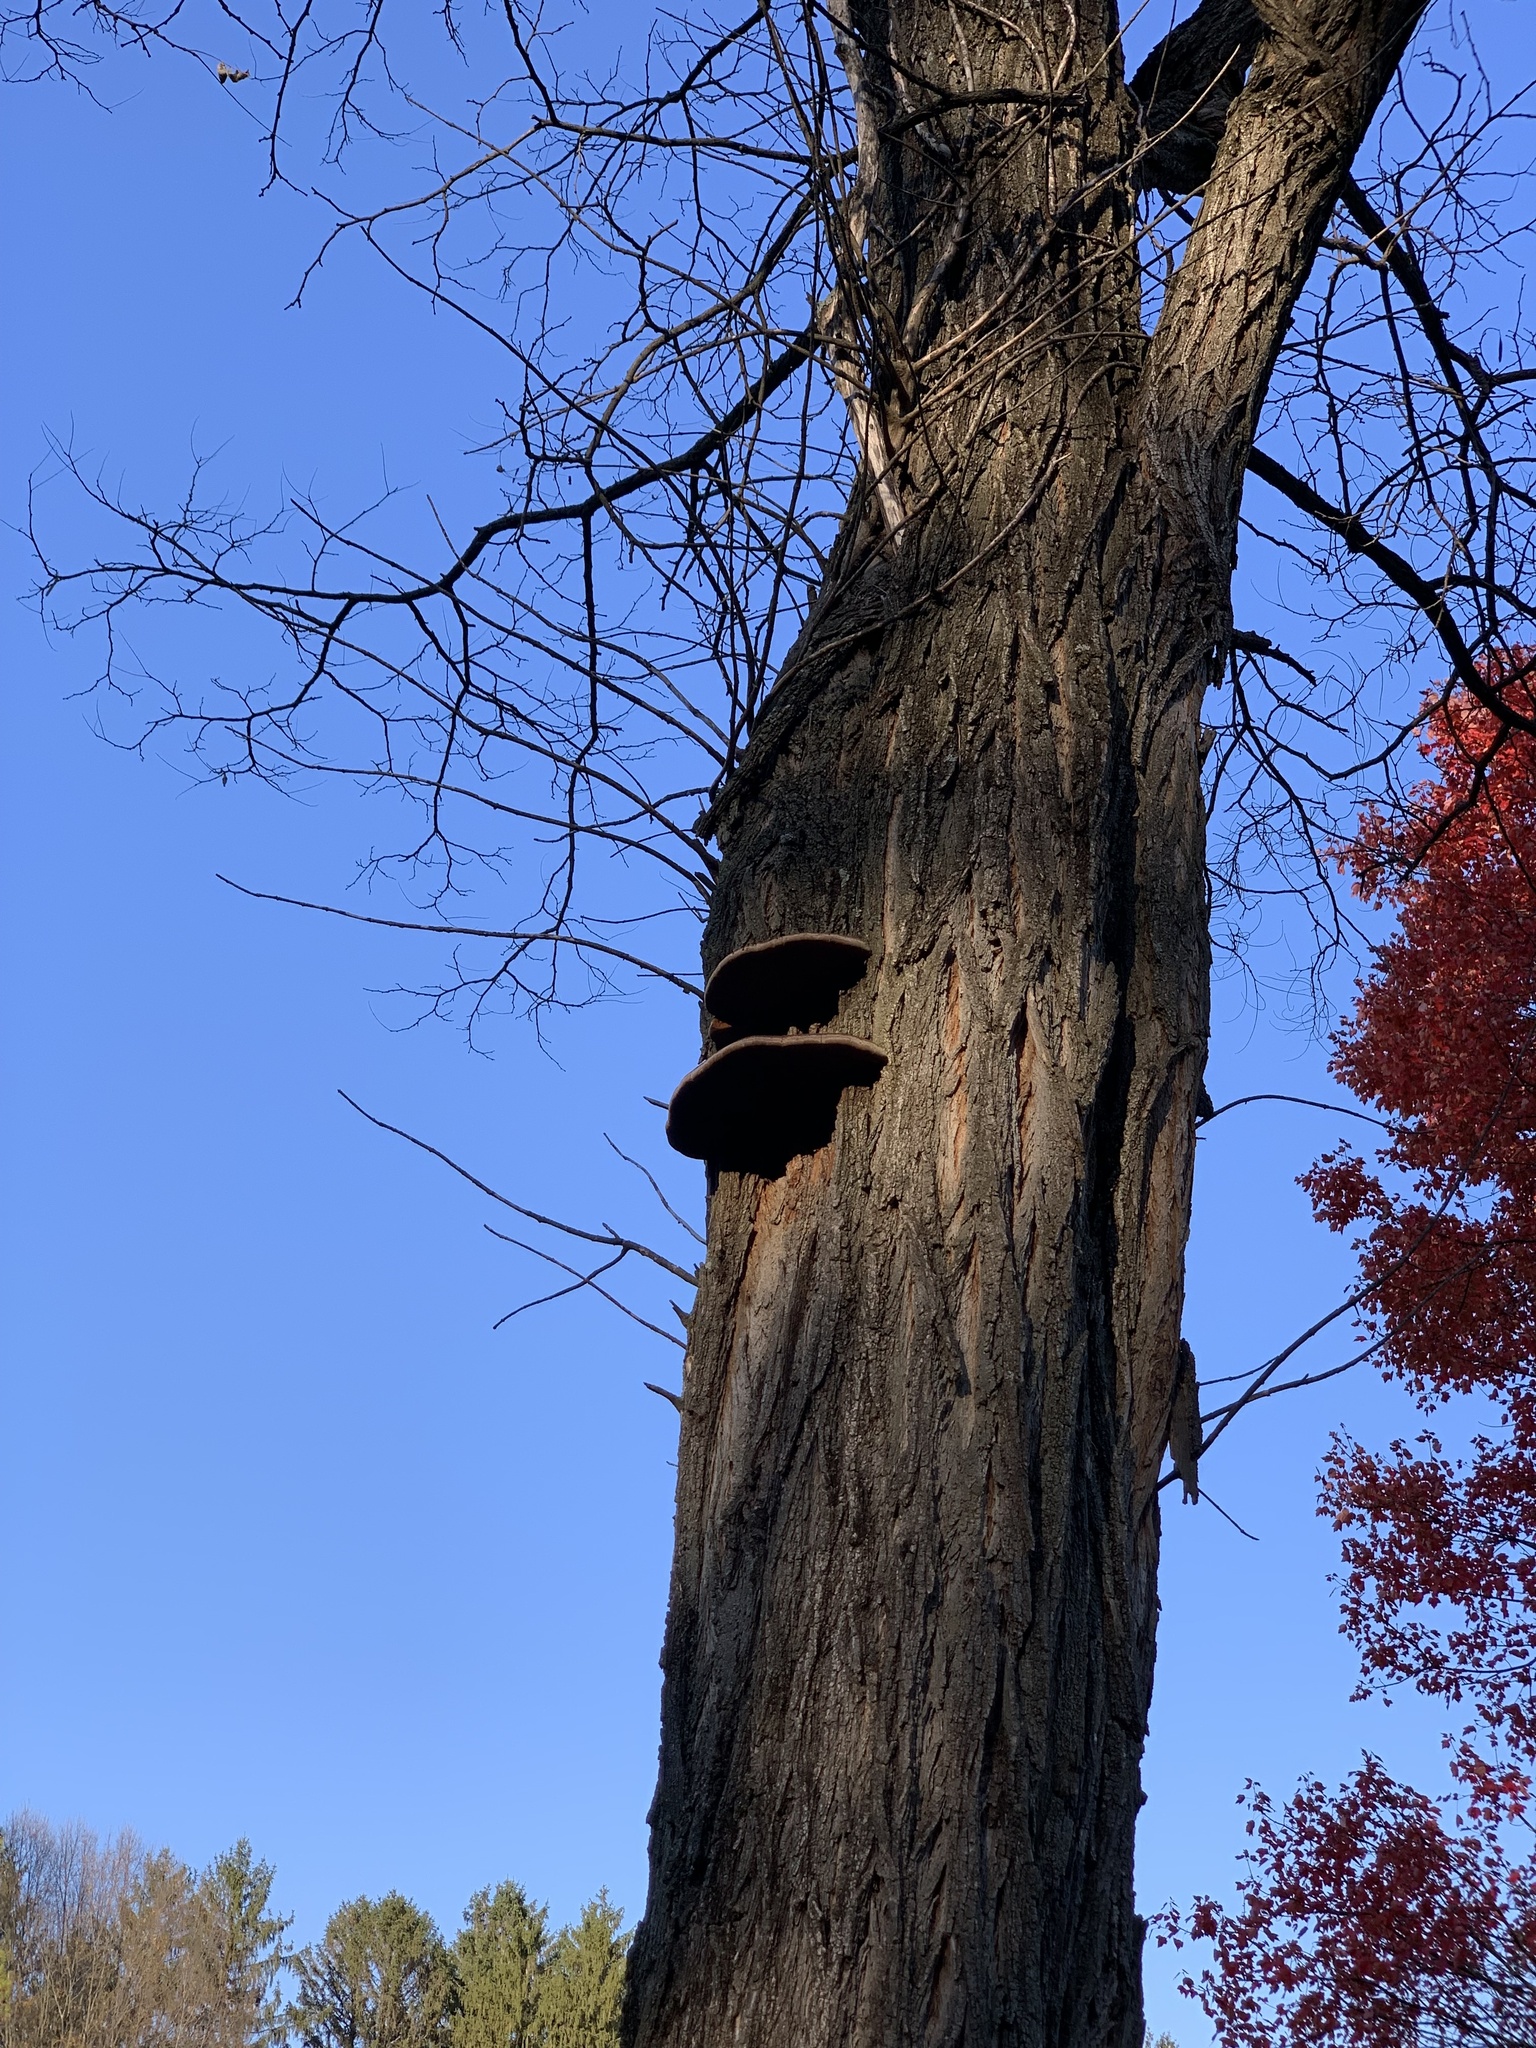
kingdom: Fungi
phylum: Basidiomycota
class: Agaricomycetes
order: Hymenochaetales
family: Hymenochaetaceae
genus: Phellinus
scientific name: Phellinus robiniae
